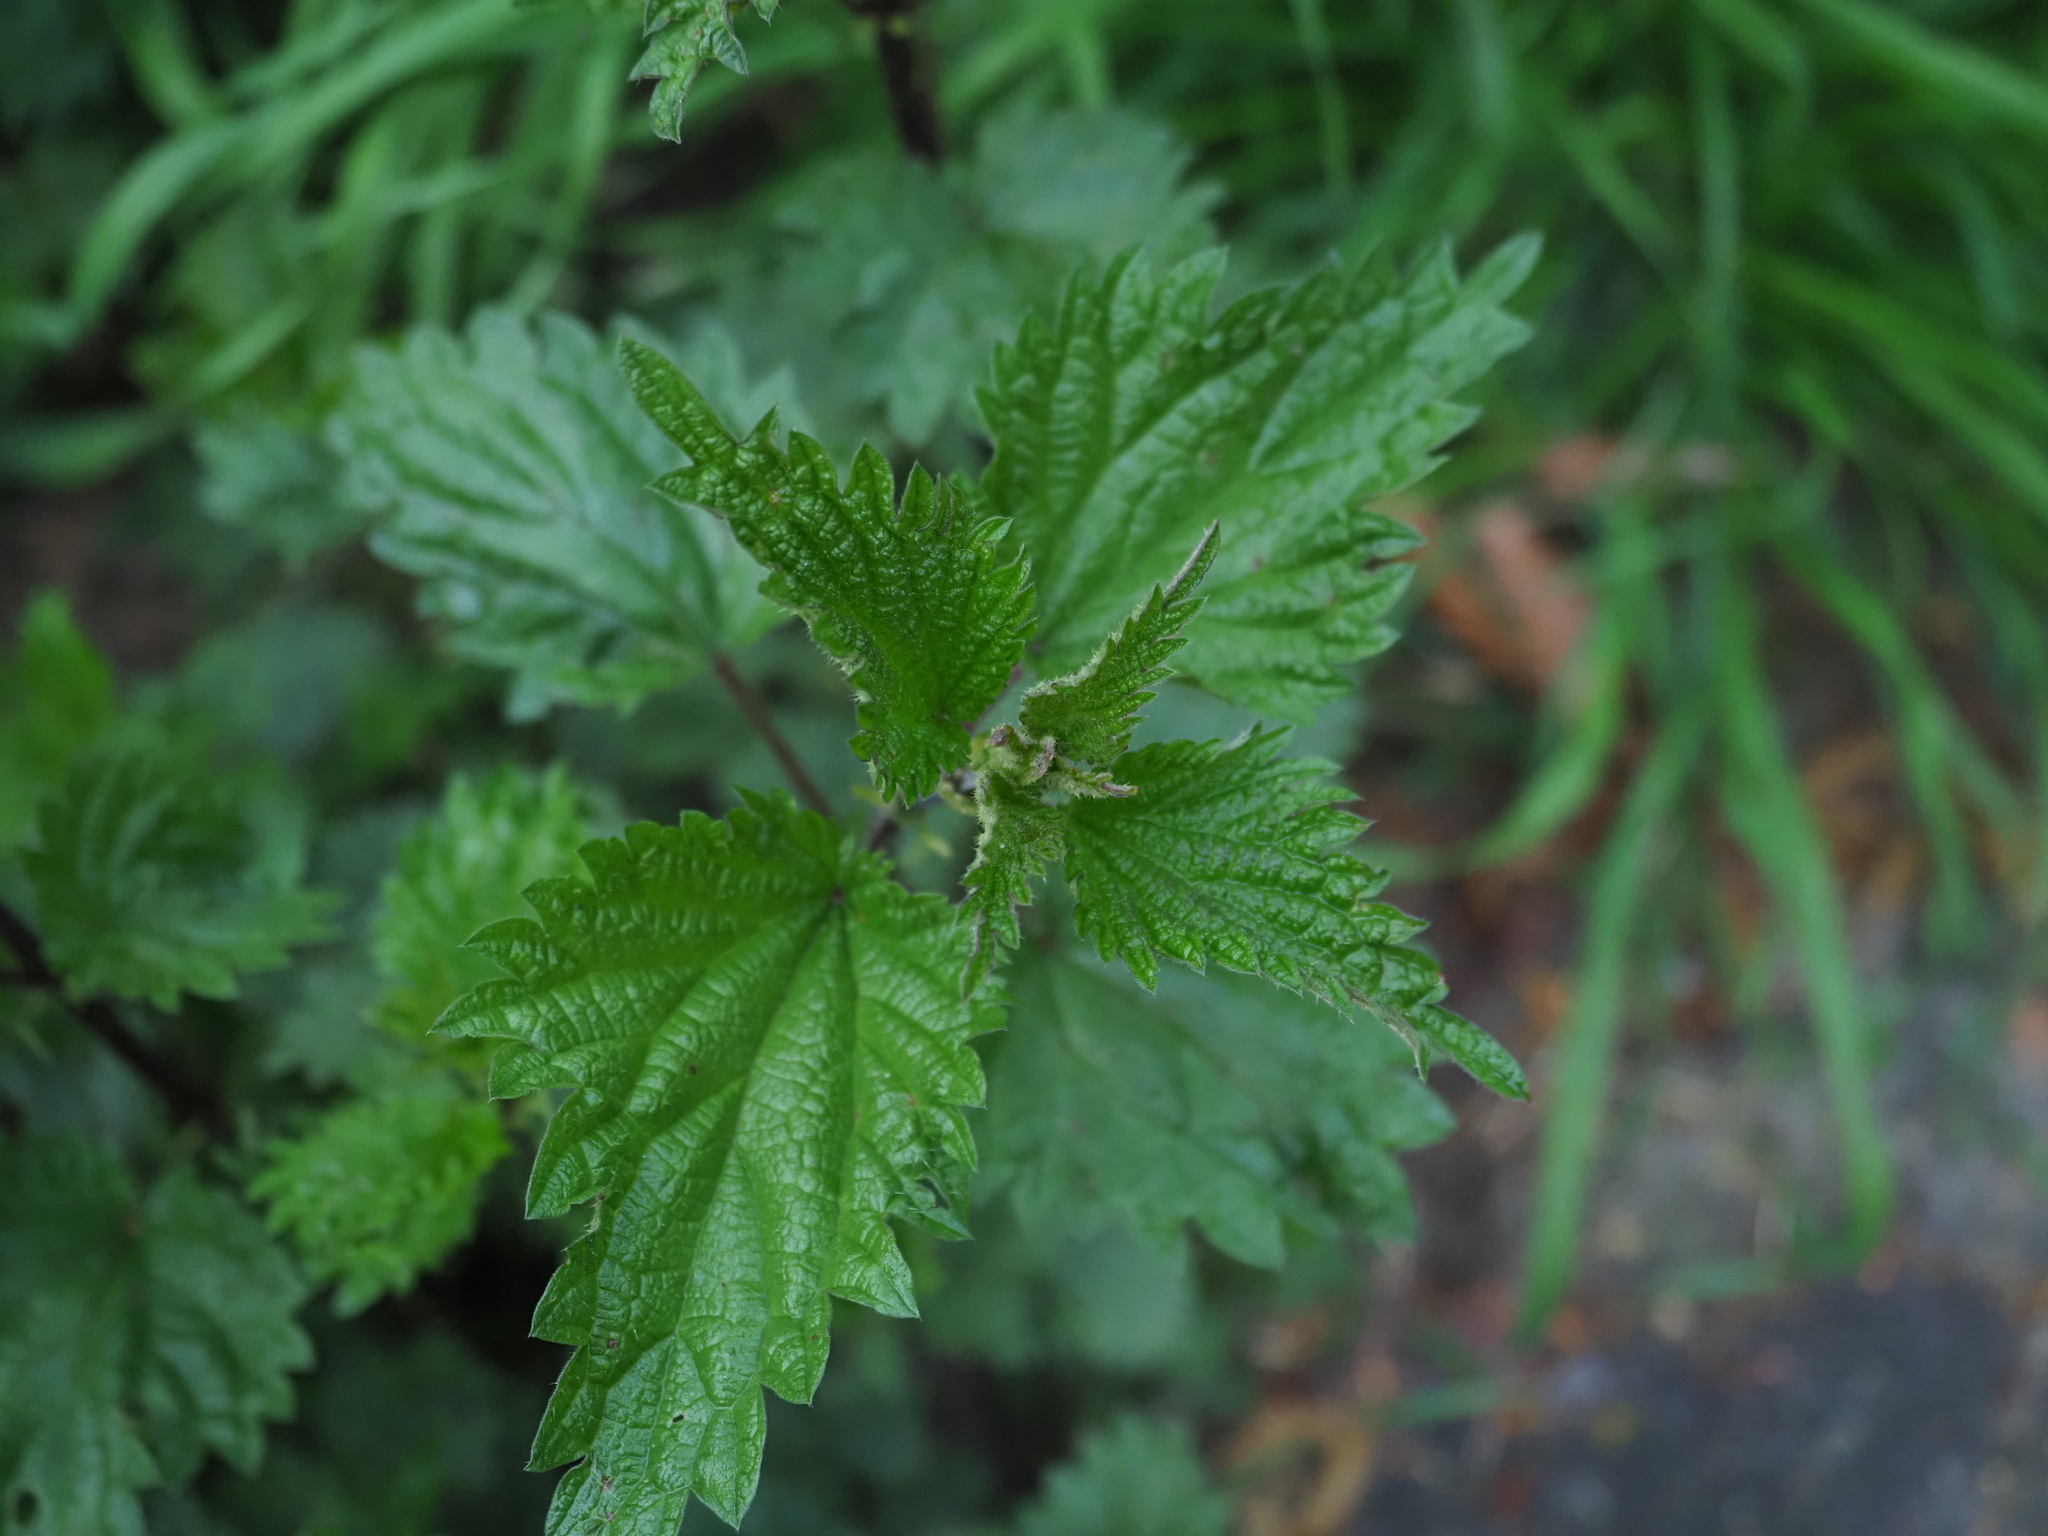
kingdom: Plantae
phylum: Tracheophyta
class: Magnoliopsida
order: Rosales
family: Urticaceae
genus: Urtica
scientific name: Urtica dioica
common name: Common nettle
